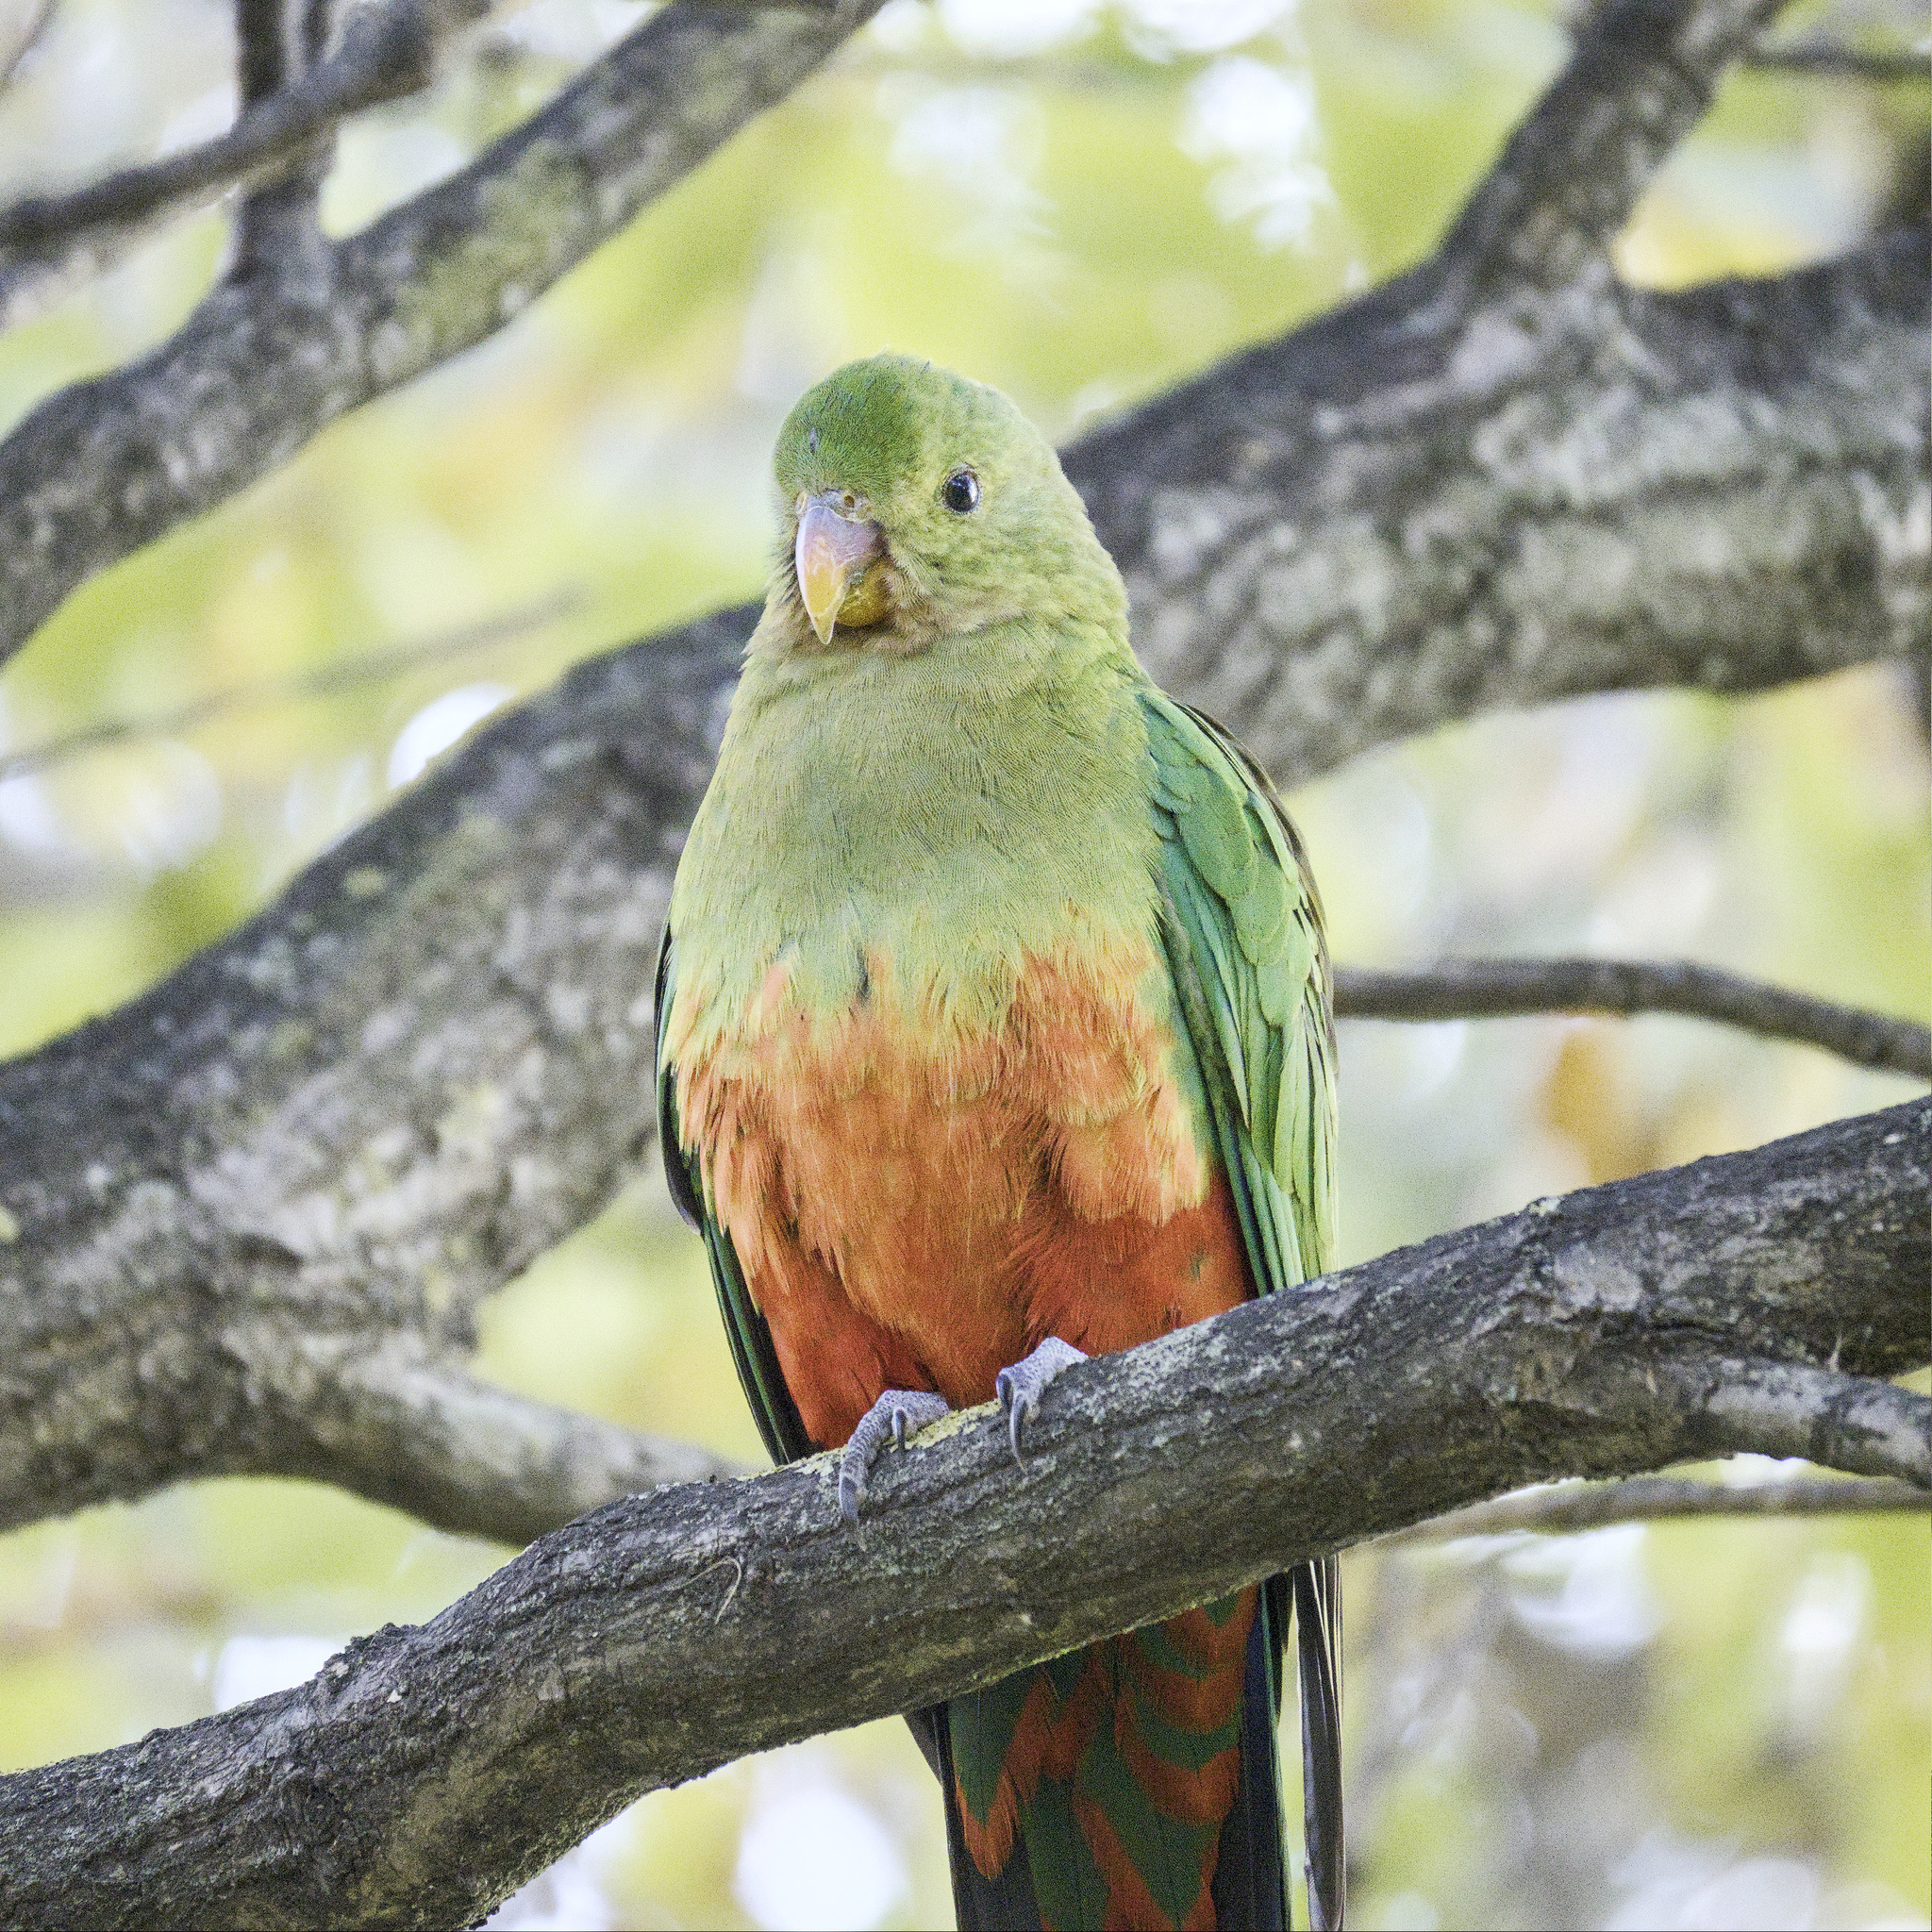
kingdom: Animalia
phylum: Chordata
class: Aves
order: Psittaciformes
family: Psittacidae
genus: Alisterus
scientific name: Alisterus scapularis
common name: Australian king parrot
